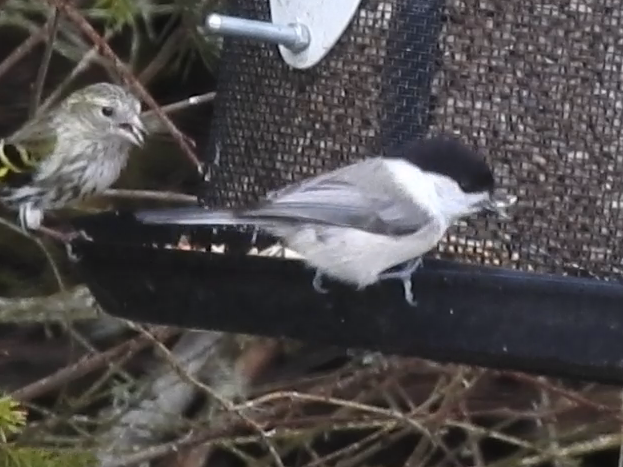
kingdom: Animalia
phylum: Chordata
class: Aves
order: Passeriformes
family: Paridae
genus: Poecile
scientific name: Poecile montanus
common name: Willow tit
